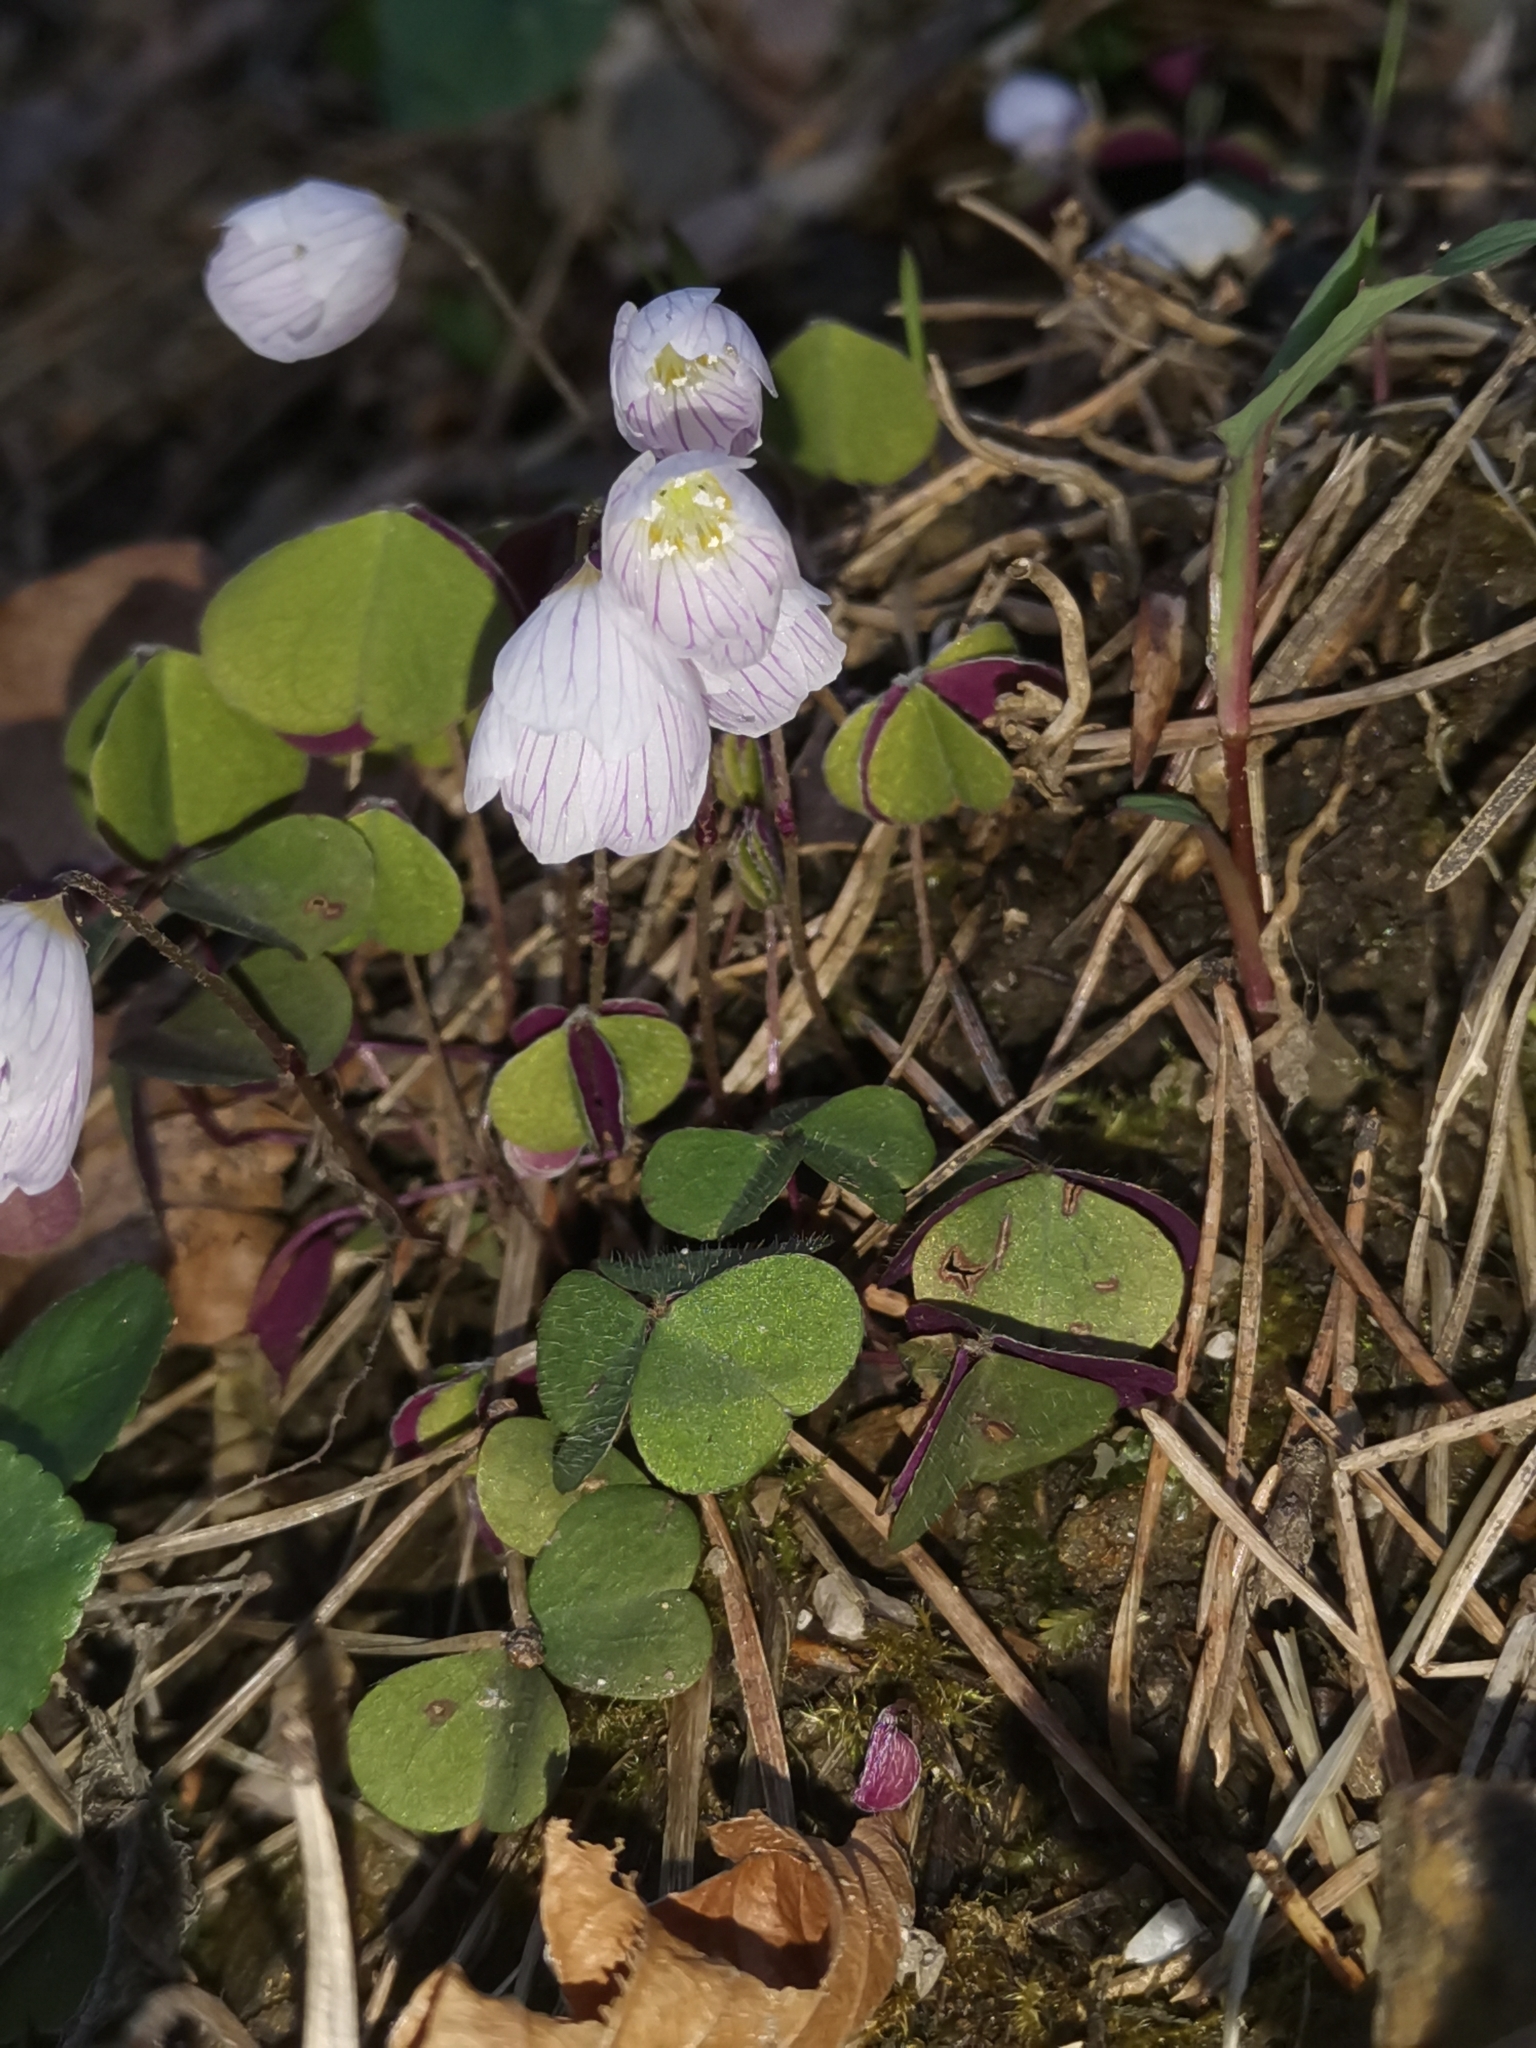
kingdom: Plantae
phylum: Tracheophyta
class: Magnoliopsida
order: Oxalidales
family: Oxalidaceae
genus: Oxalis
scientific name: Oxalis acetosella
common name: Wood-sorrel
